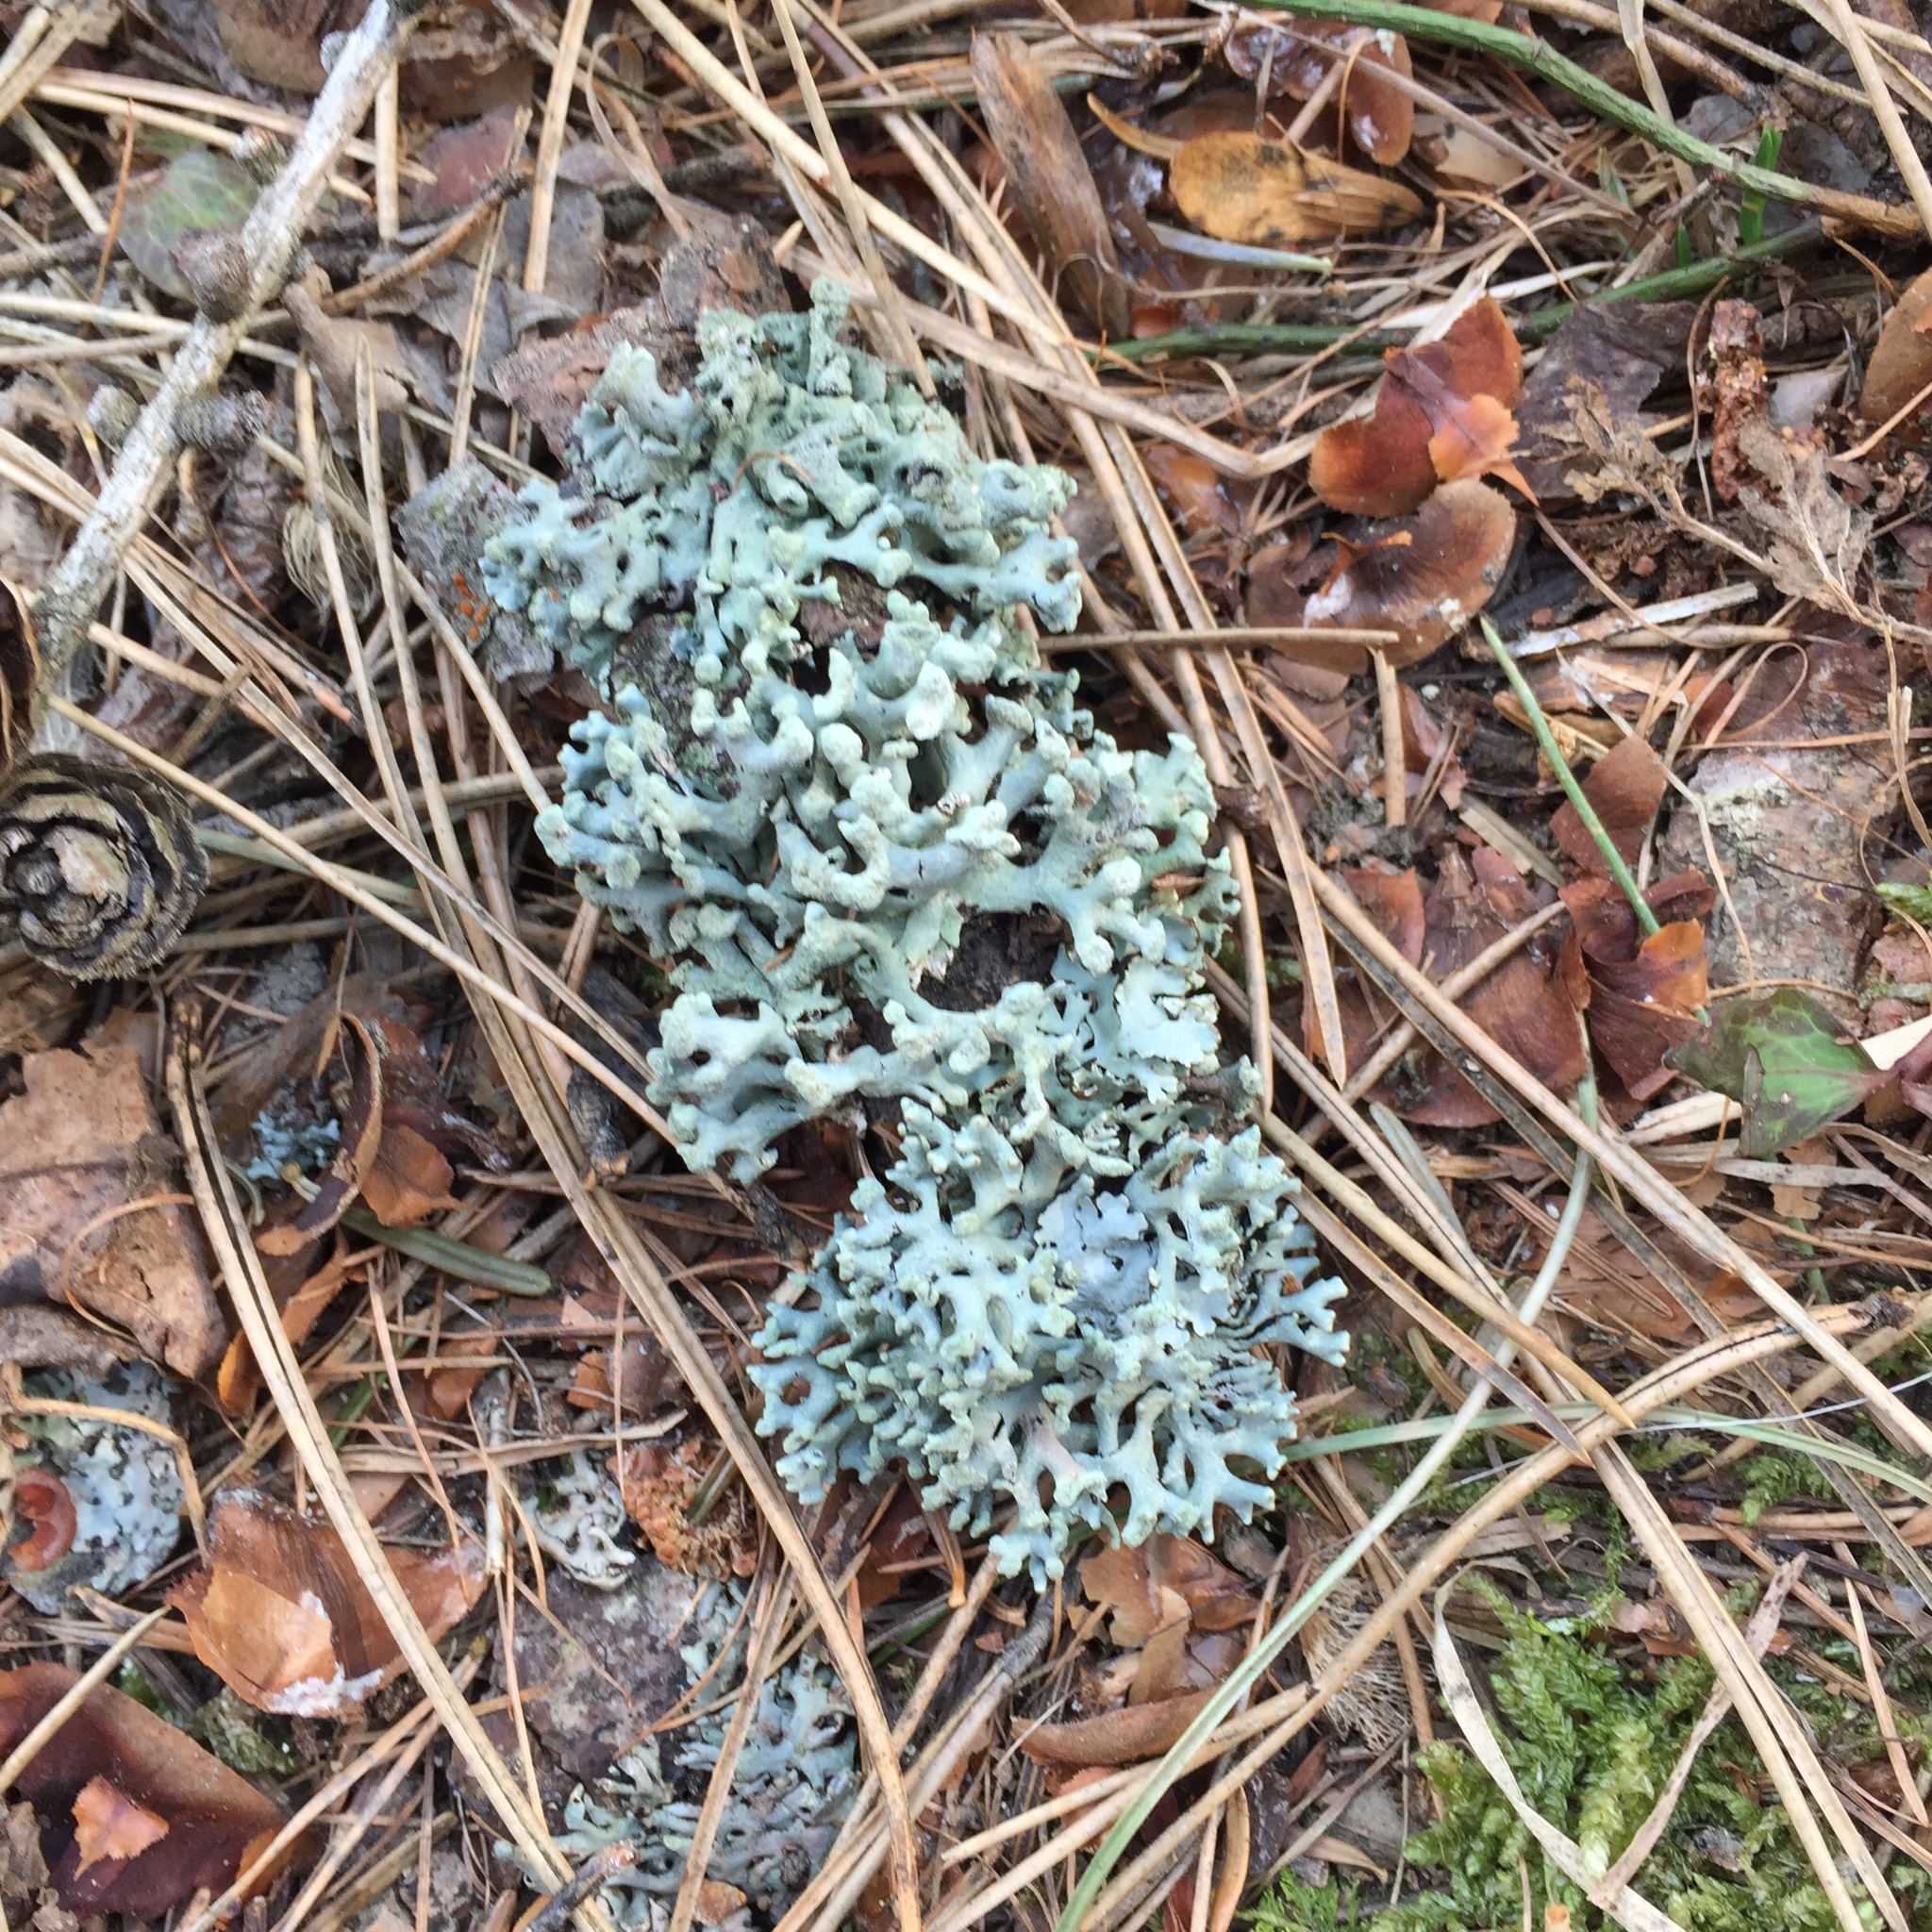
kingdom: Fungi
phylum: Ascomycota
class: Lecanoromycetes
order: Lecanorales
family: Parmeliaceae
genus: Hypogymnia
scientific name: Hypogymnia tubulosa
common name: Powder-headed tube lichen
